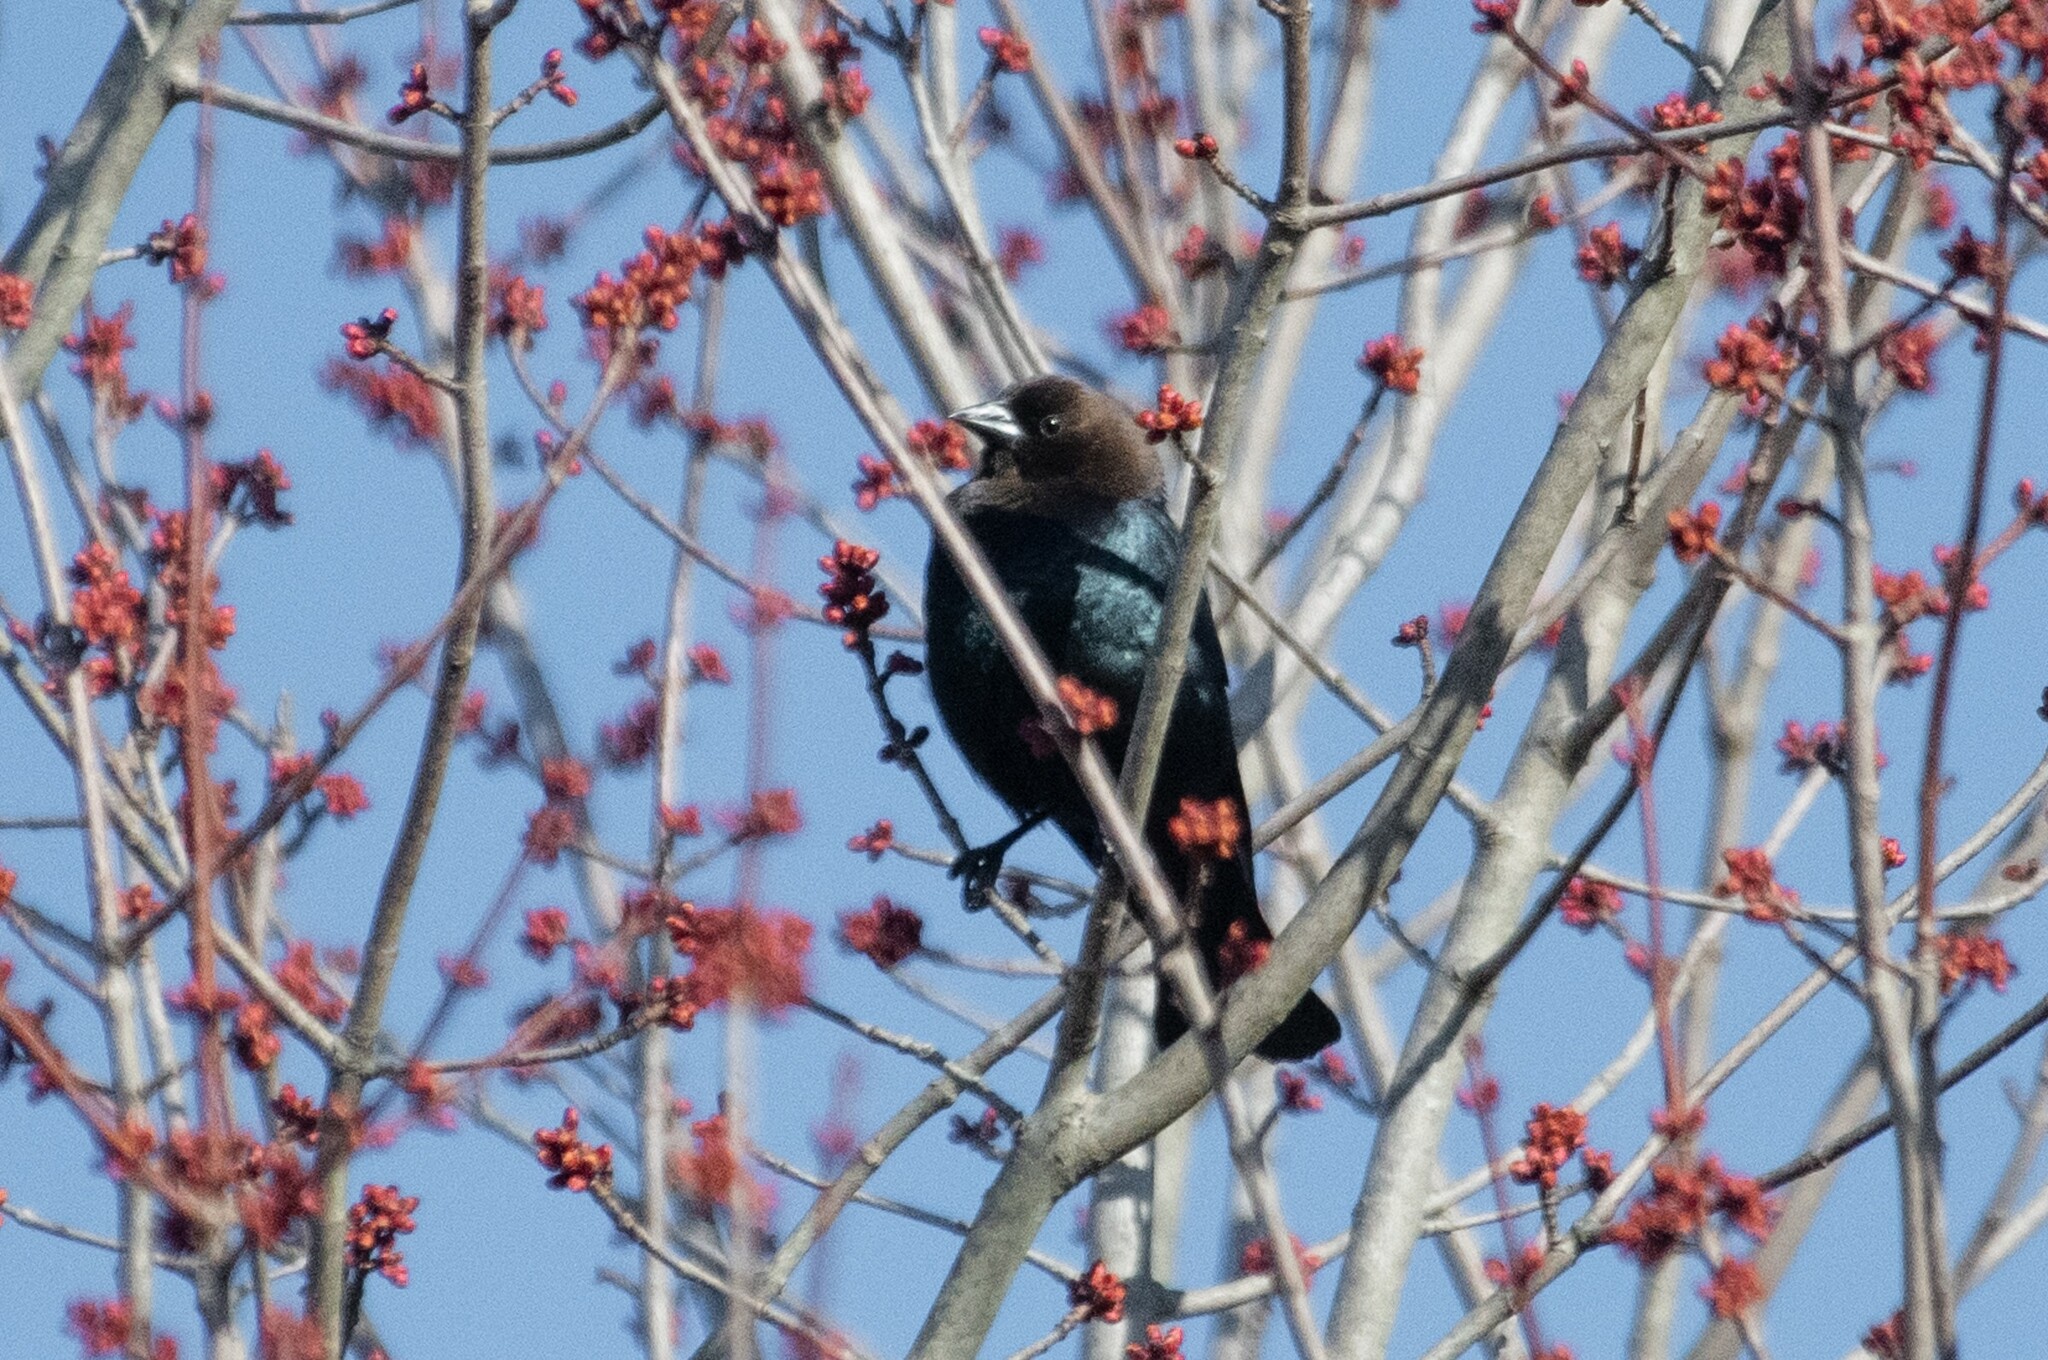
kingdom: Animalia
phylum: Chordata
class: Aves
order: Passeriformes
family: Icteridae
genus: Molothrus
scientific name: Molothrus ater
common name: Brown-headed cowbird
